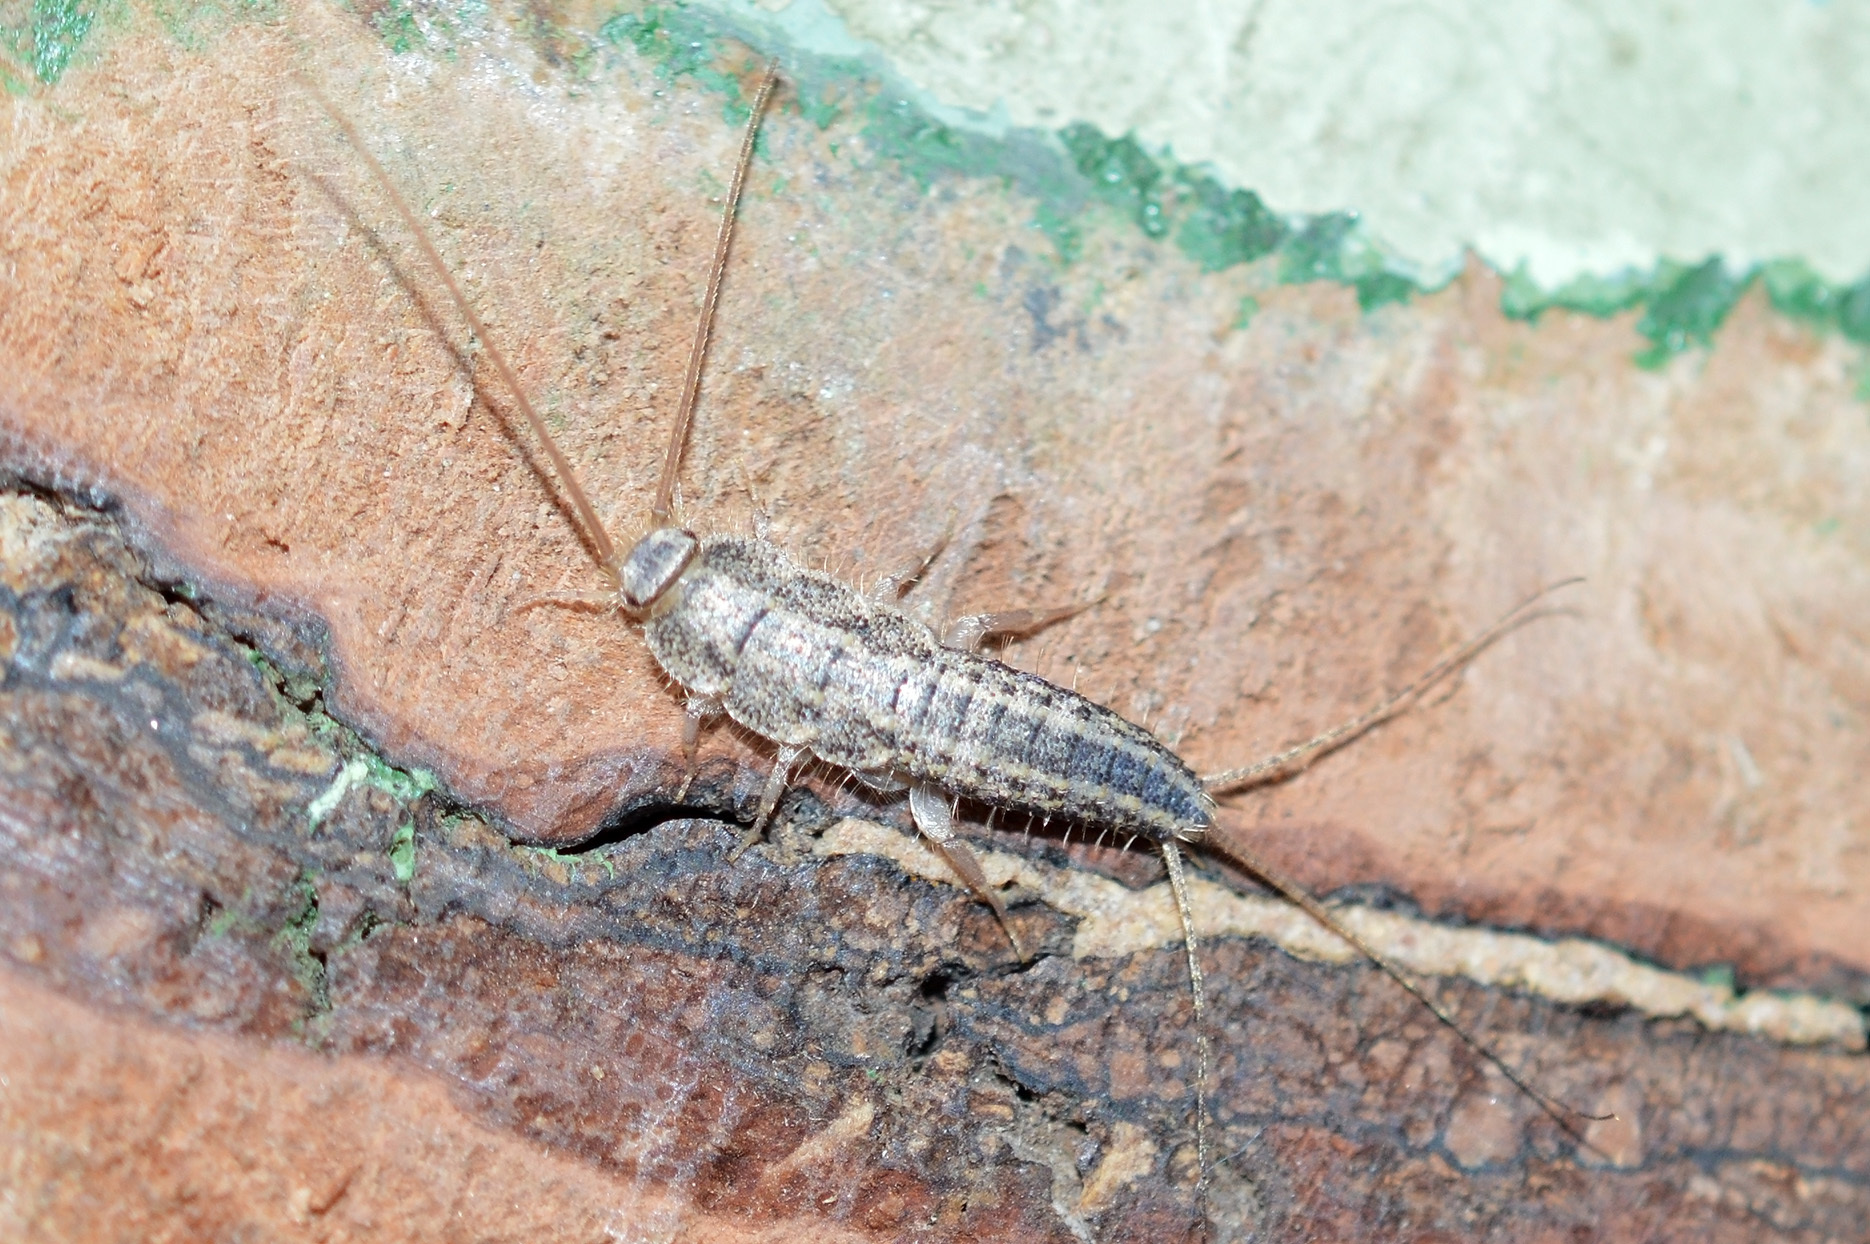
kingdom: Animalia
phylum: Arthropoda
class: Insecta
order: Zygentoma
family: Lepismatidae
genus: Ctenolepisma
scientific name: Ctenolepisma lineata
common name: Four-lined silverfish
